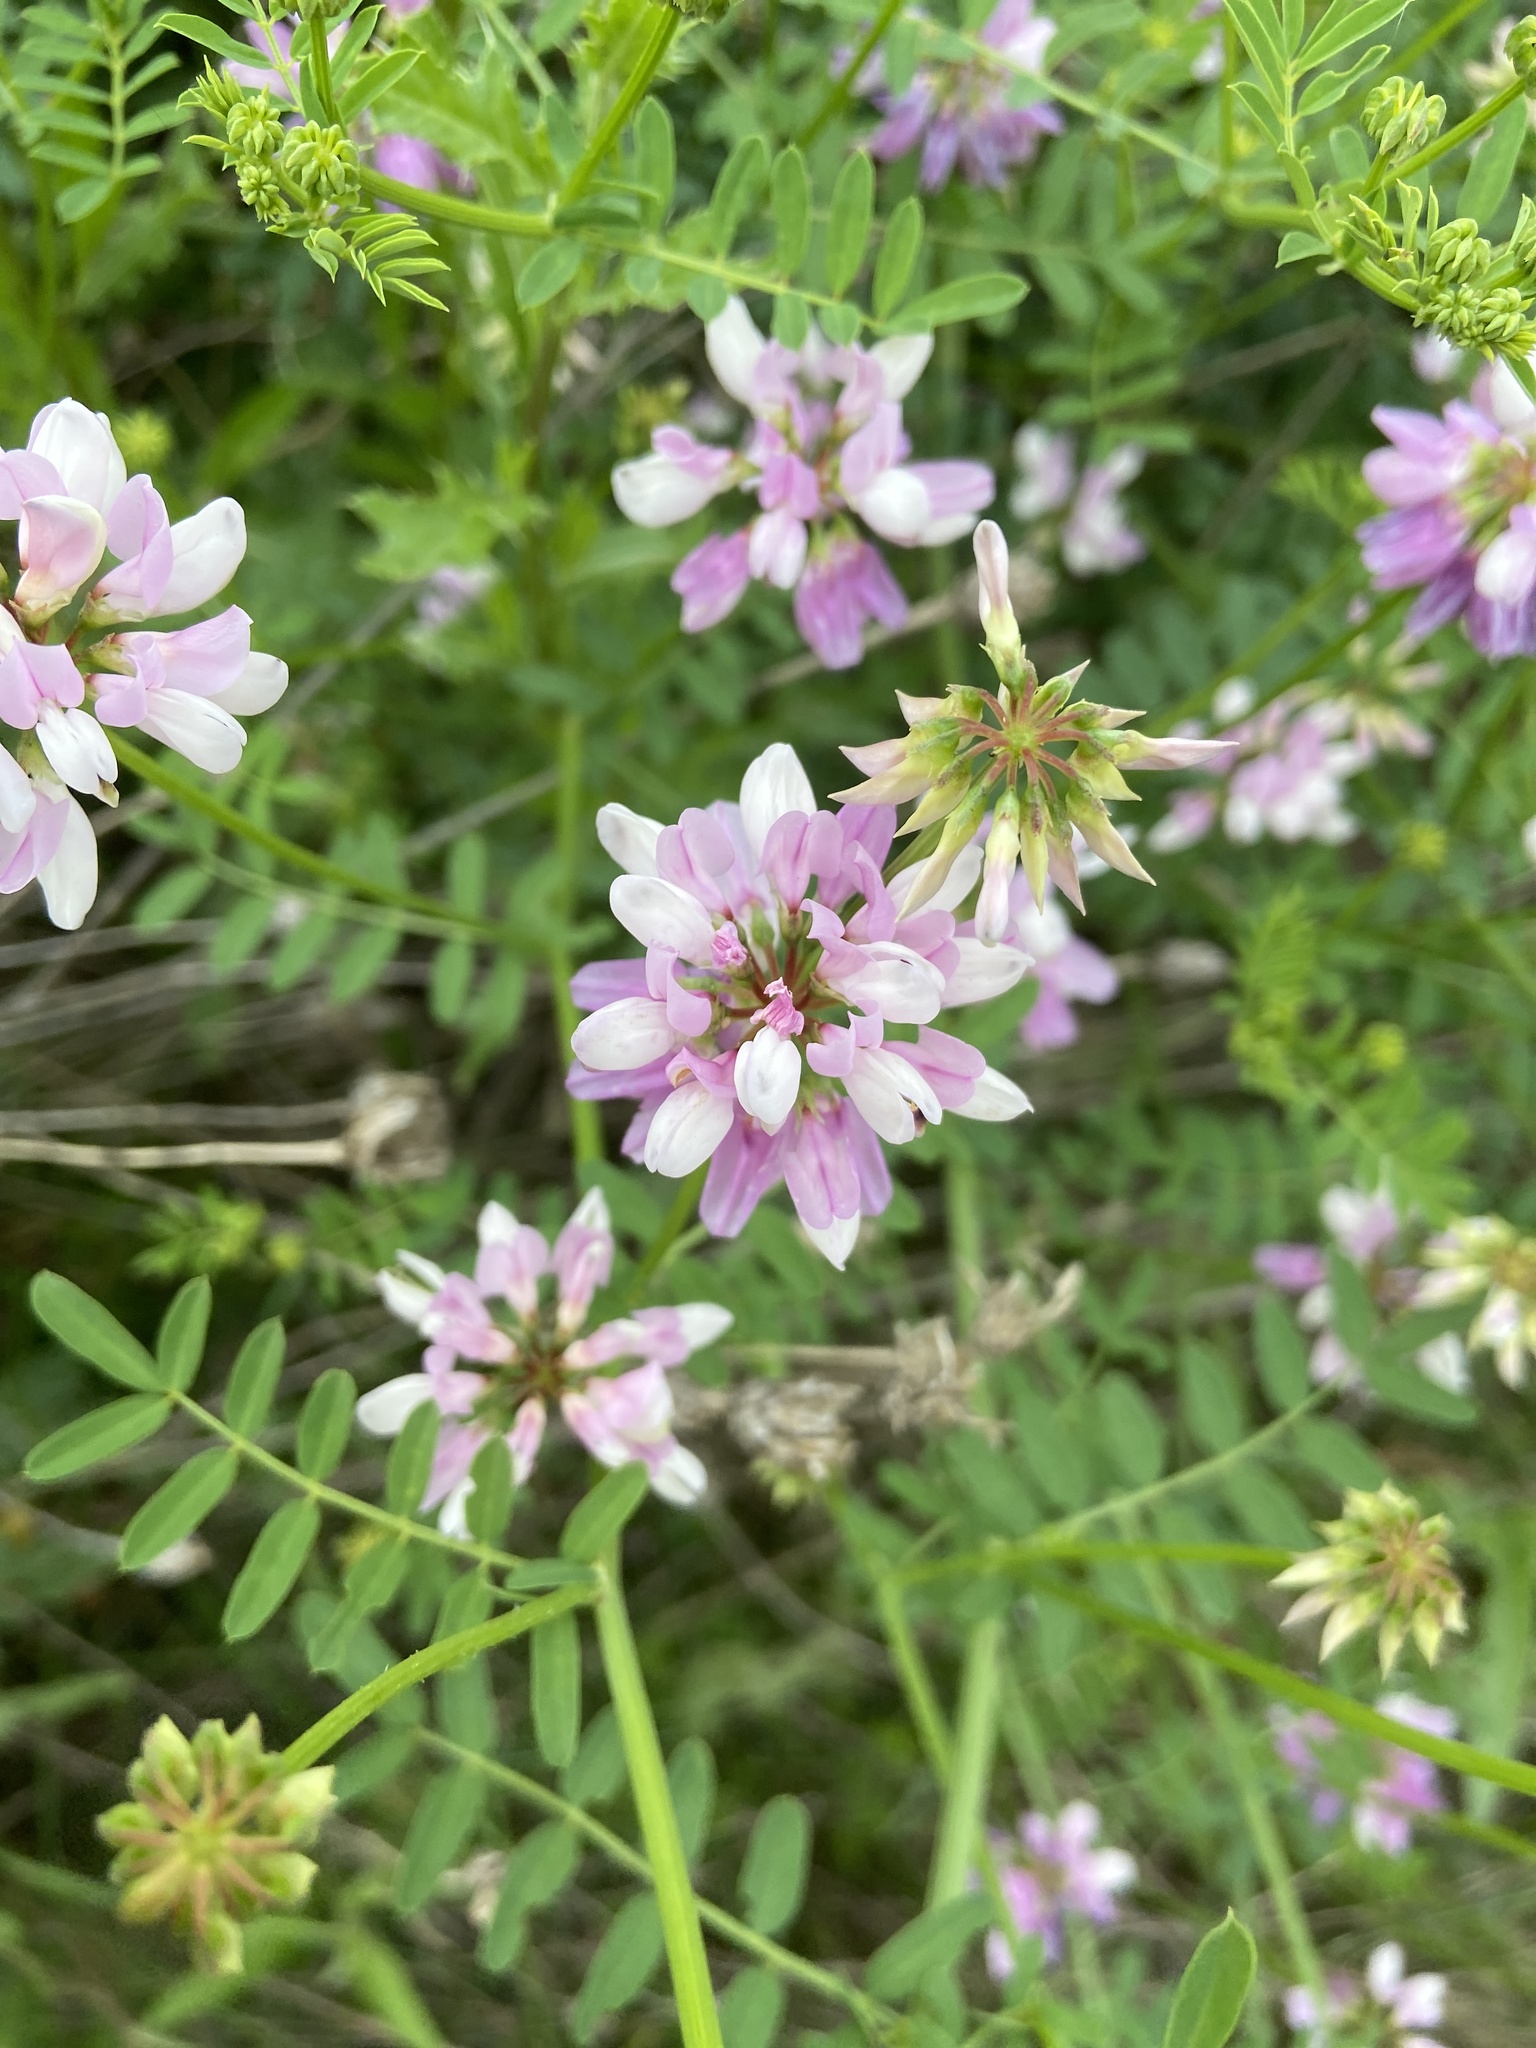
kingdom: Plantae
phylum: Tracheophyta
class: Magnoliopsida
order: Fabales
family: Fabaceae
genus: Coronilla
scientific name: Coronilla varia
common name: Crownvetch
